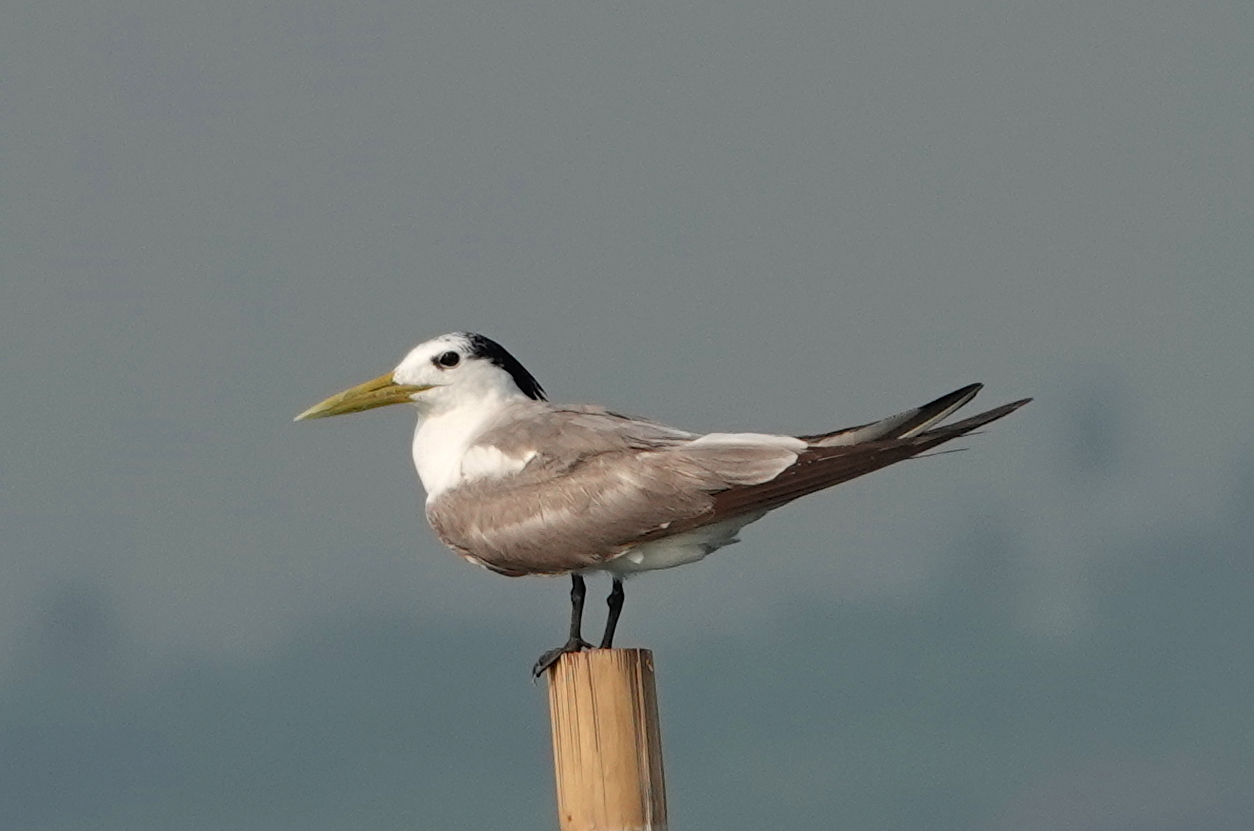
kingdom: Animalia
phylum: Chordata
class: Aves
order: Charadriiformes
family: Laridae
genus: Thalasseus
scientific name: Thalasseus bergii
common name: Greater crested tern
